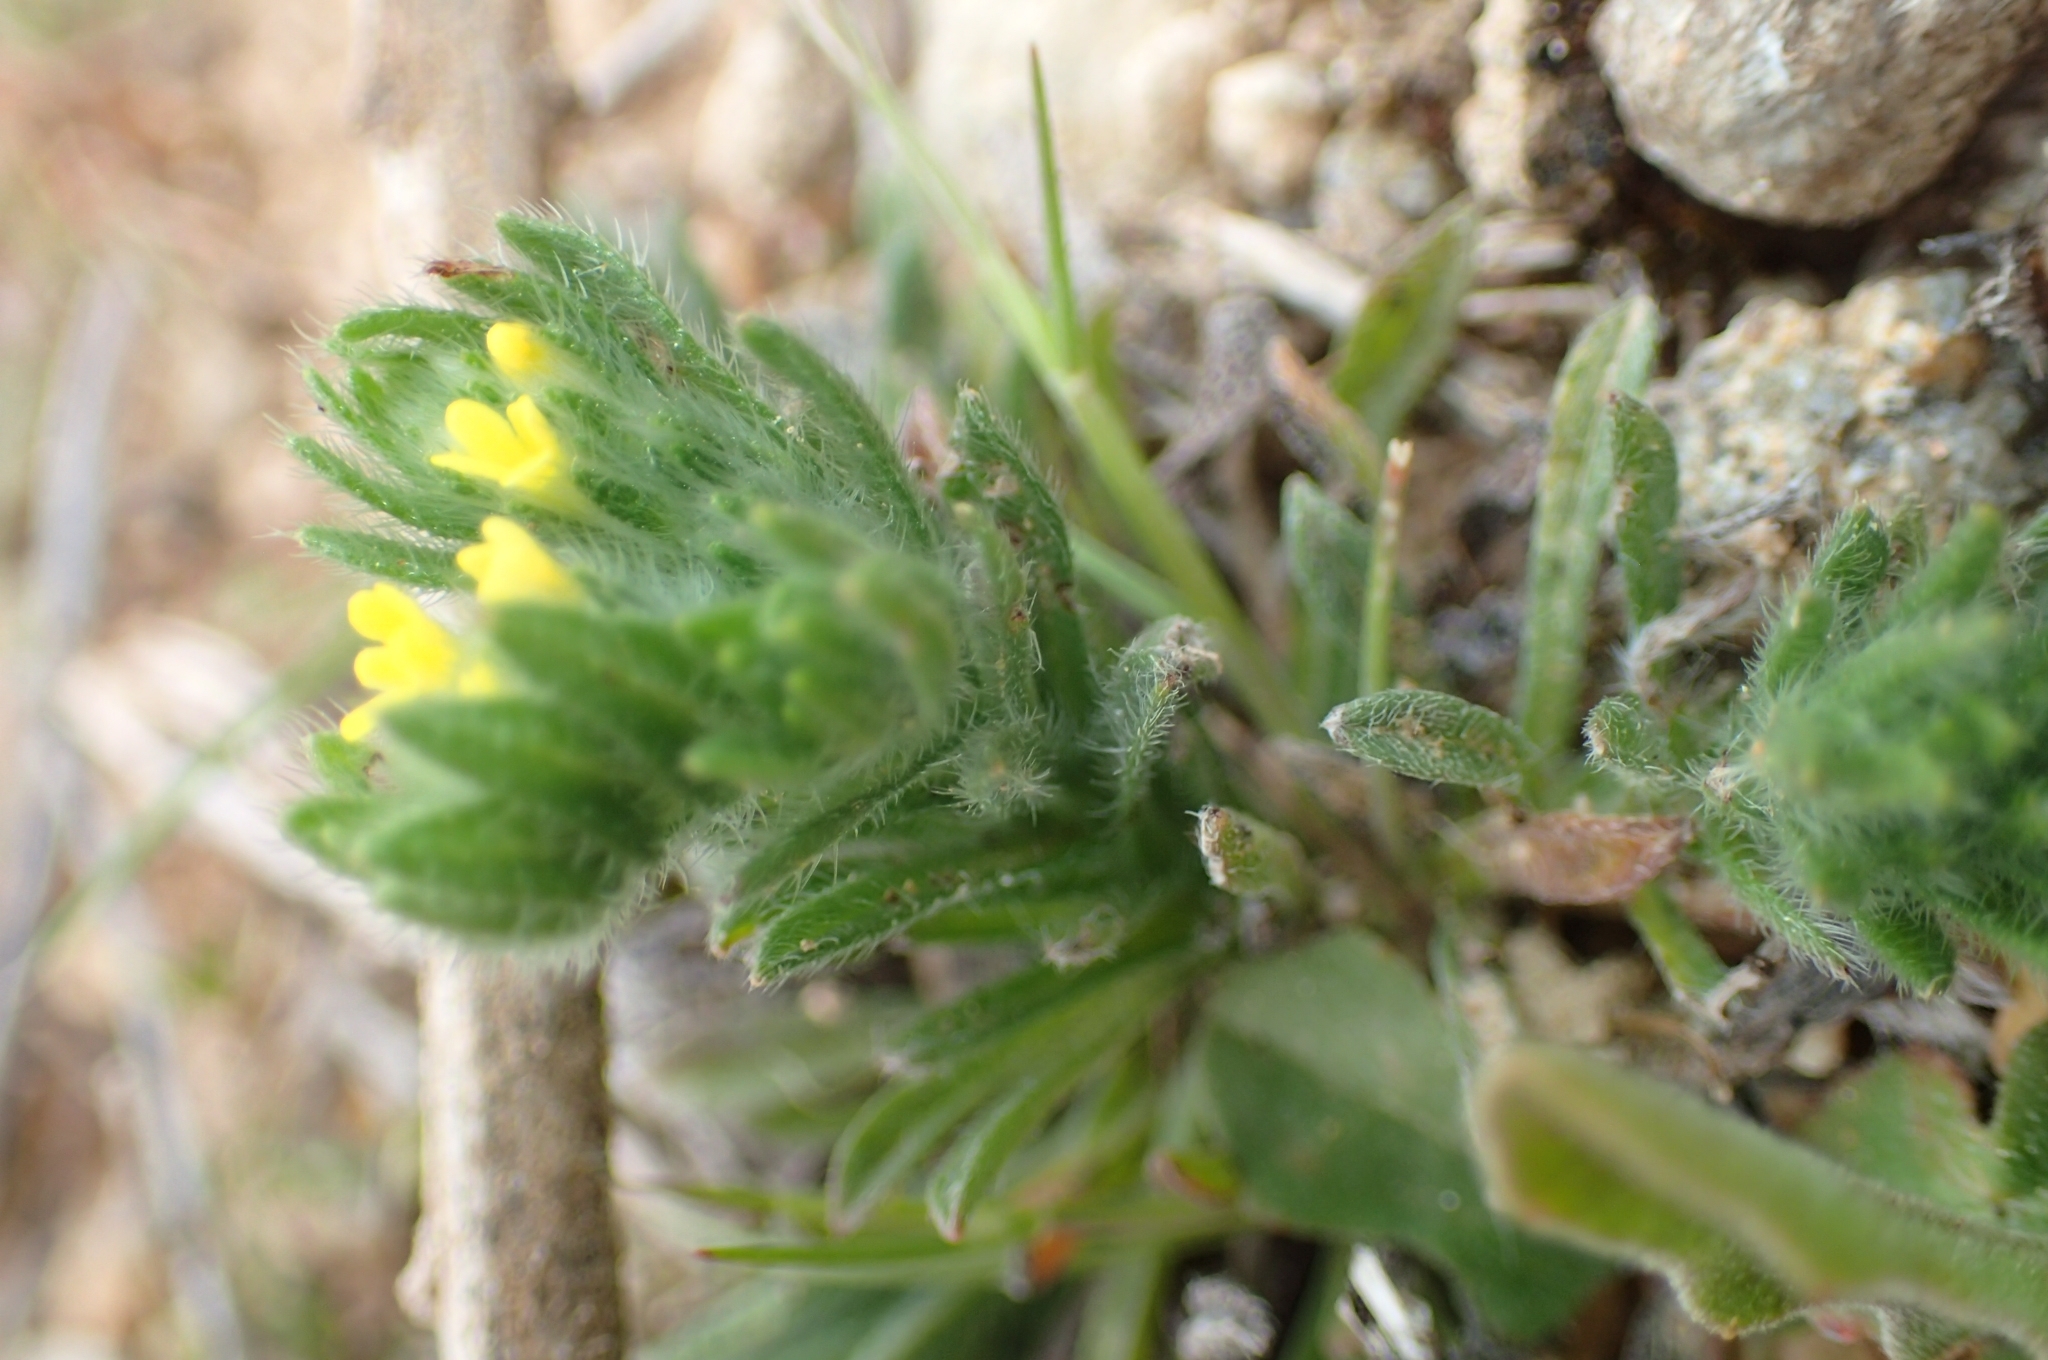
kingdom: Plantae
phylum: Tracheophyta
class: Magnoliopsida
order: Boraginales
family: Boraginaceae
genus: Neatostema
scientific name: Neatostema apulum
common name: Hairy sheepweed
